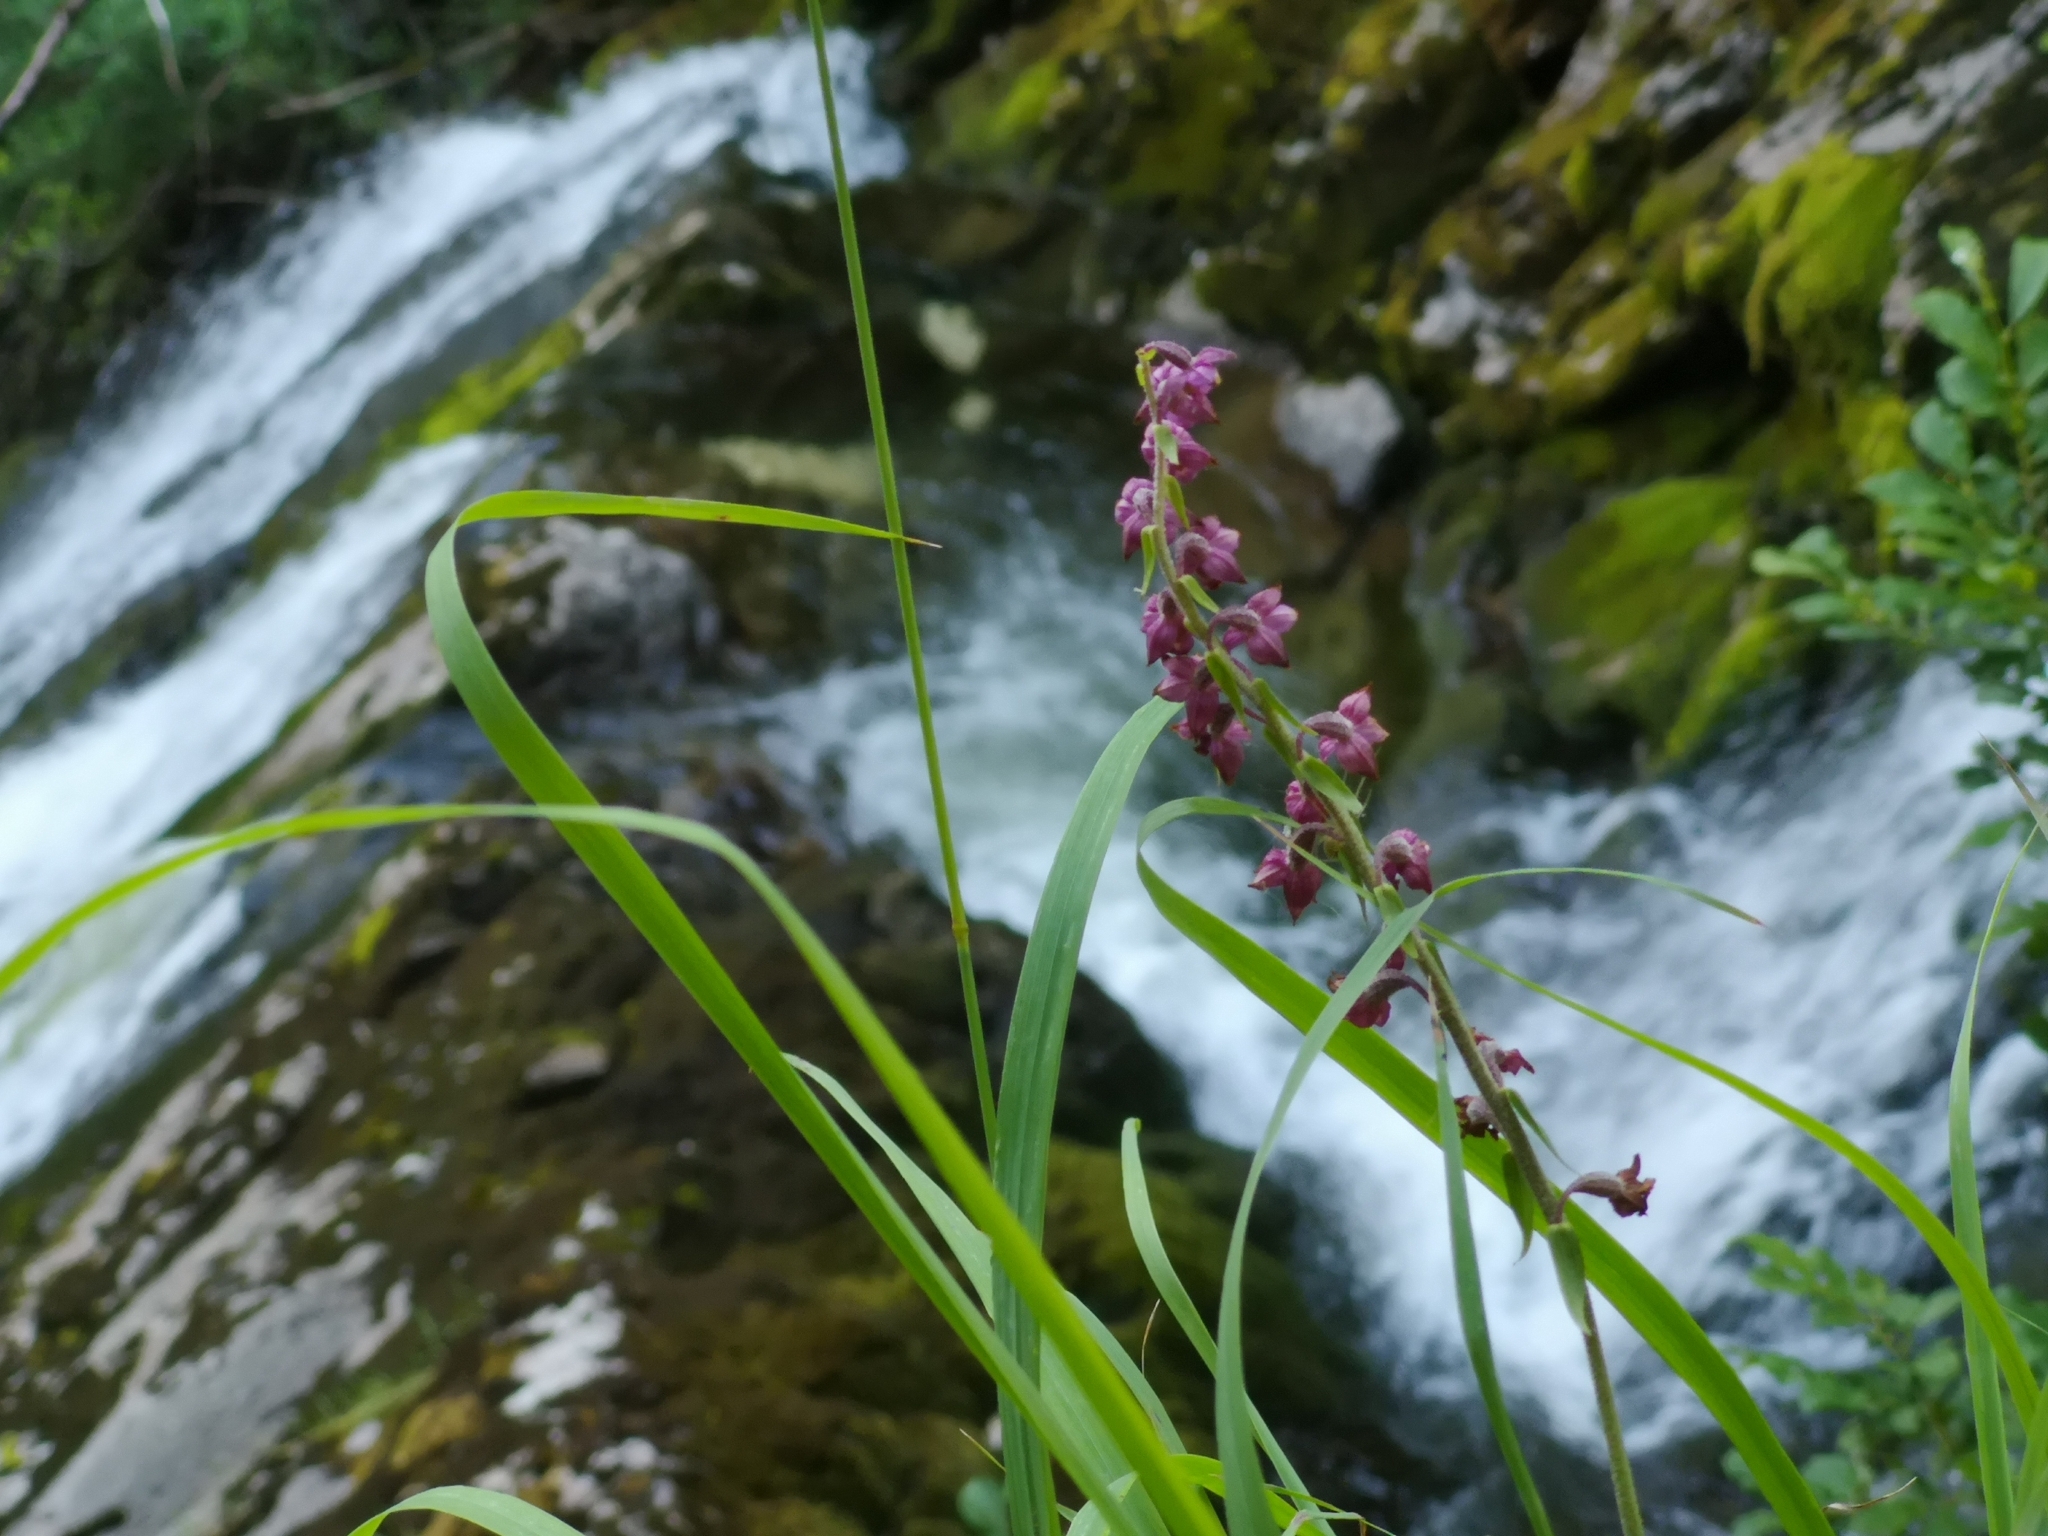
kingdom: Plantae
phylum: Tracheophyta
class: Liliopsida
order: Asparagales
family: Orchidaceae
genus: Epipactis
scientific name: Epipactis atrorubens
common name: Dark-red helleborine
